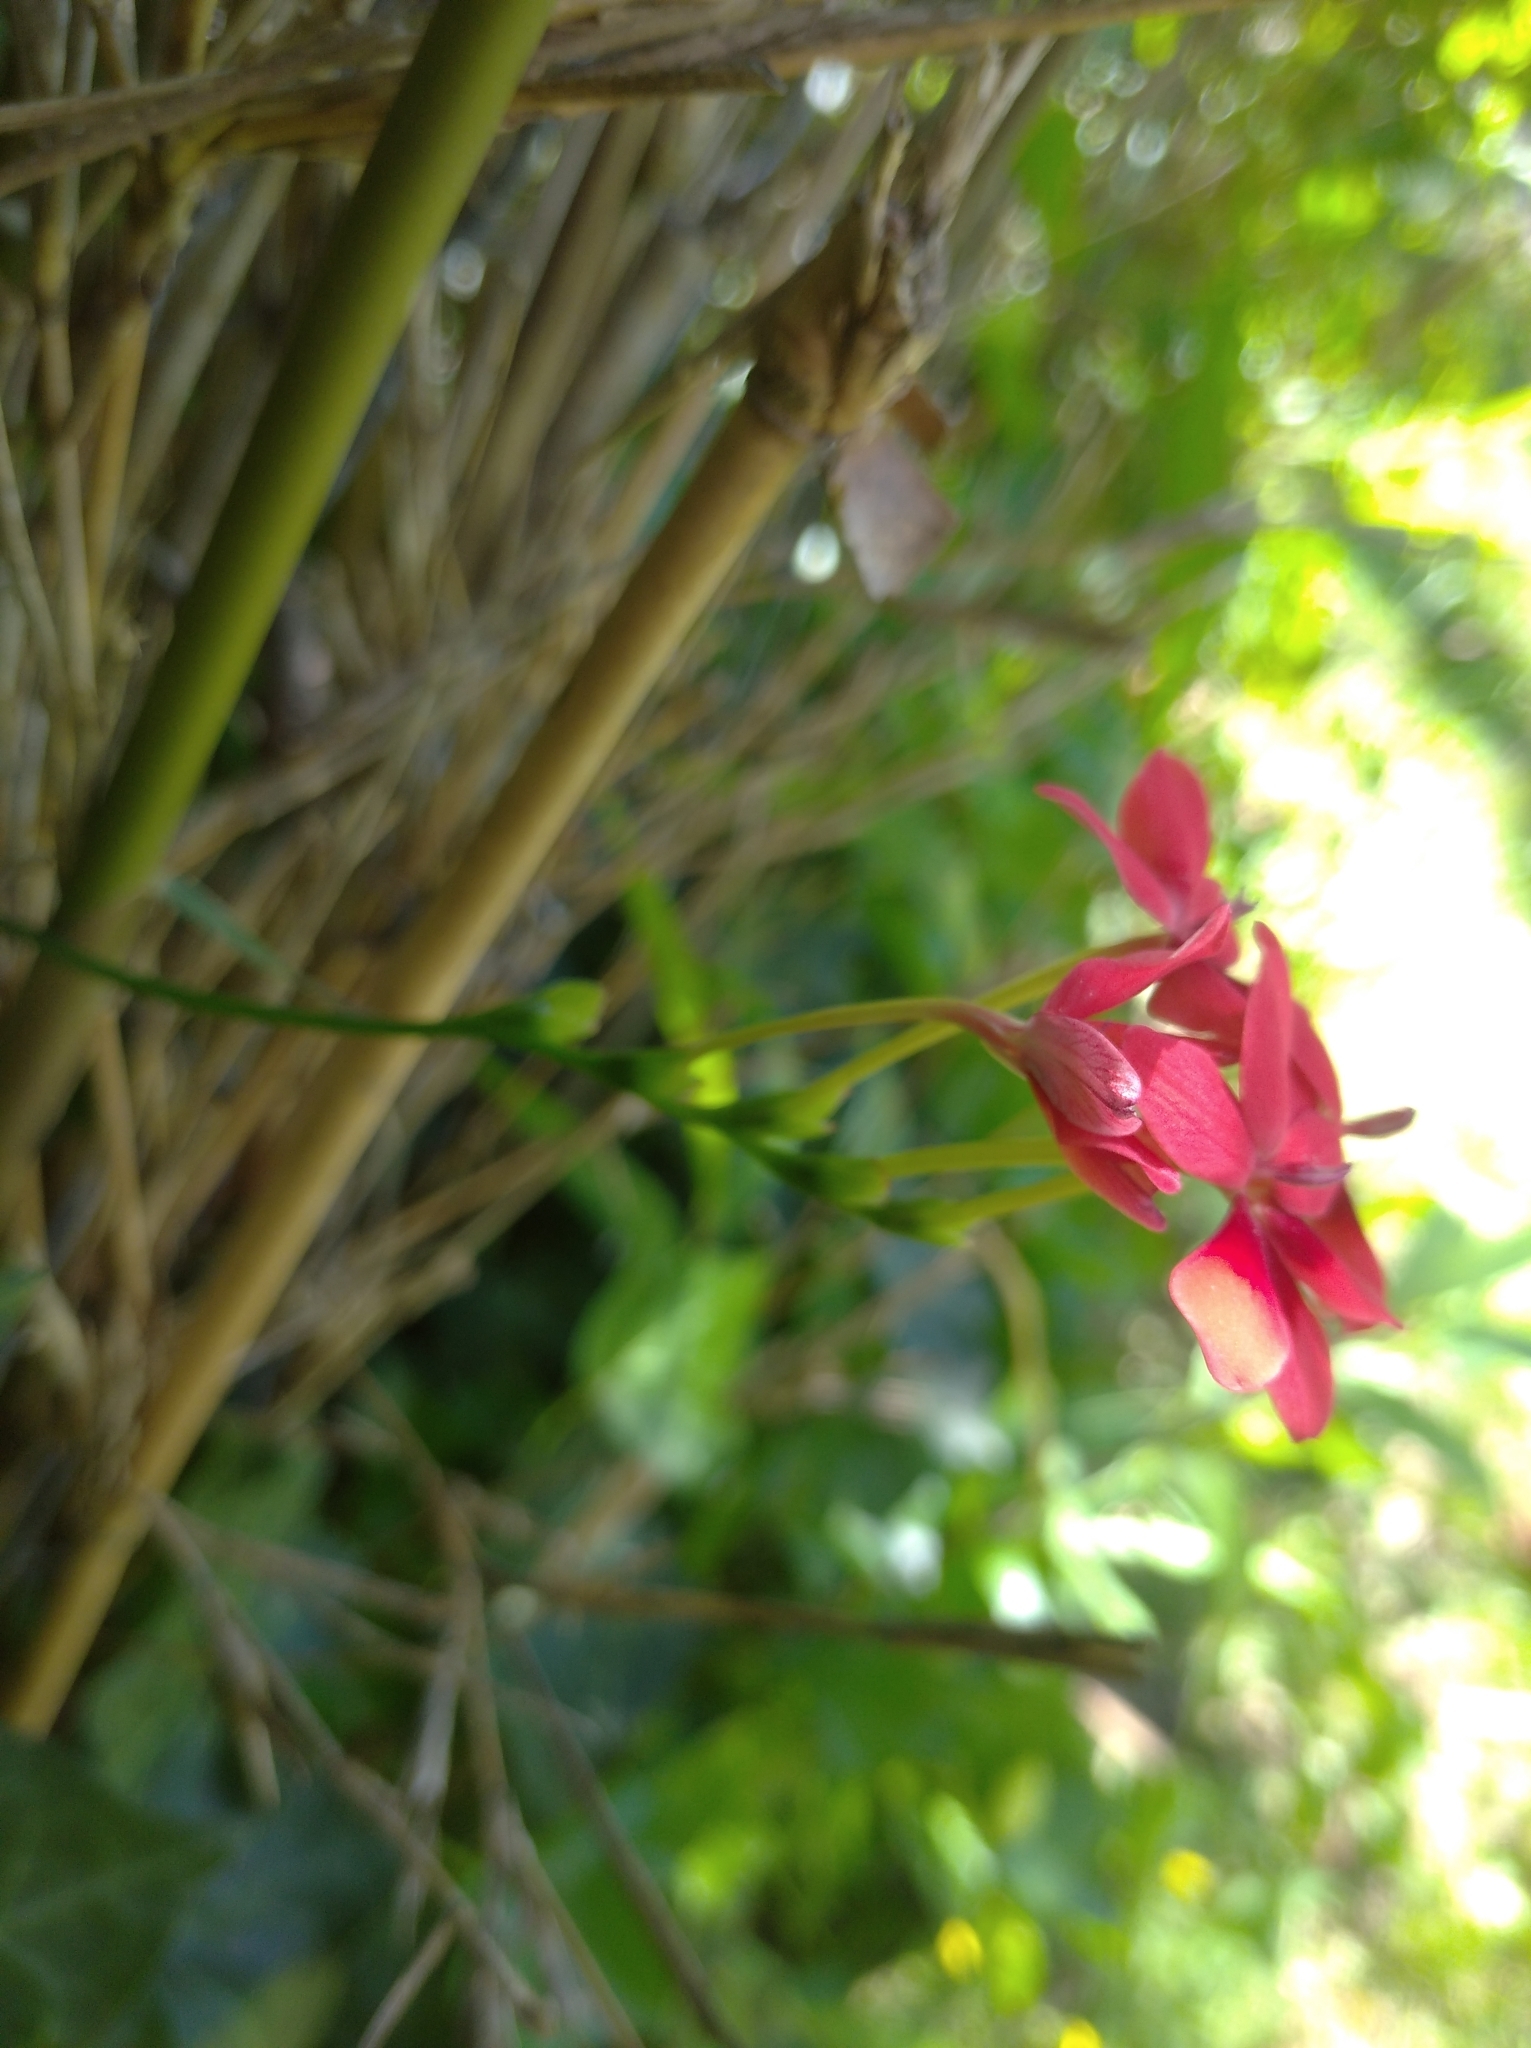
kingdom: Plantae
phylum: Tracheophyta
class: Liliopsida
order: Asparagales
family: Iridaceae
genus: Freesia
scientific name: Freesia laxa
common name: False freesia
